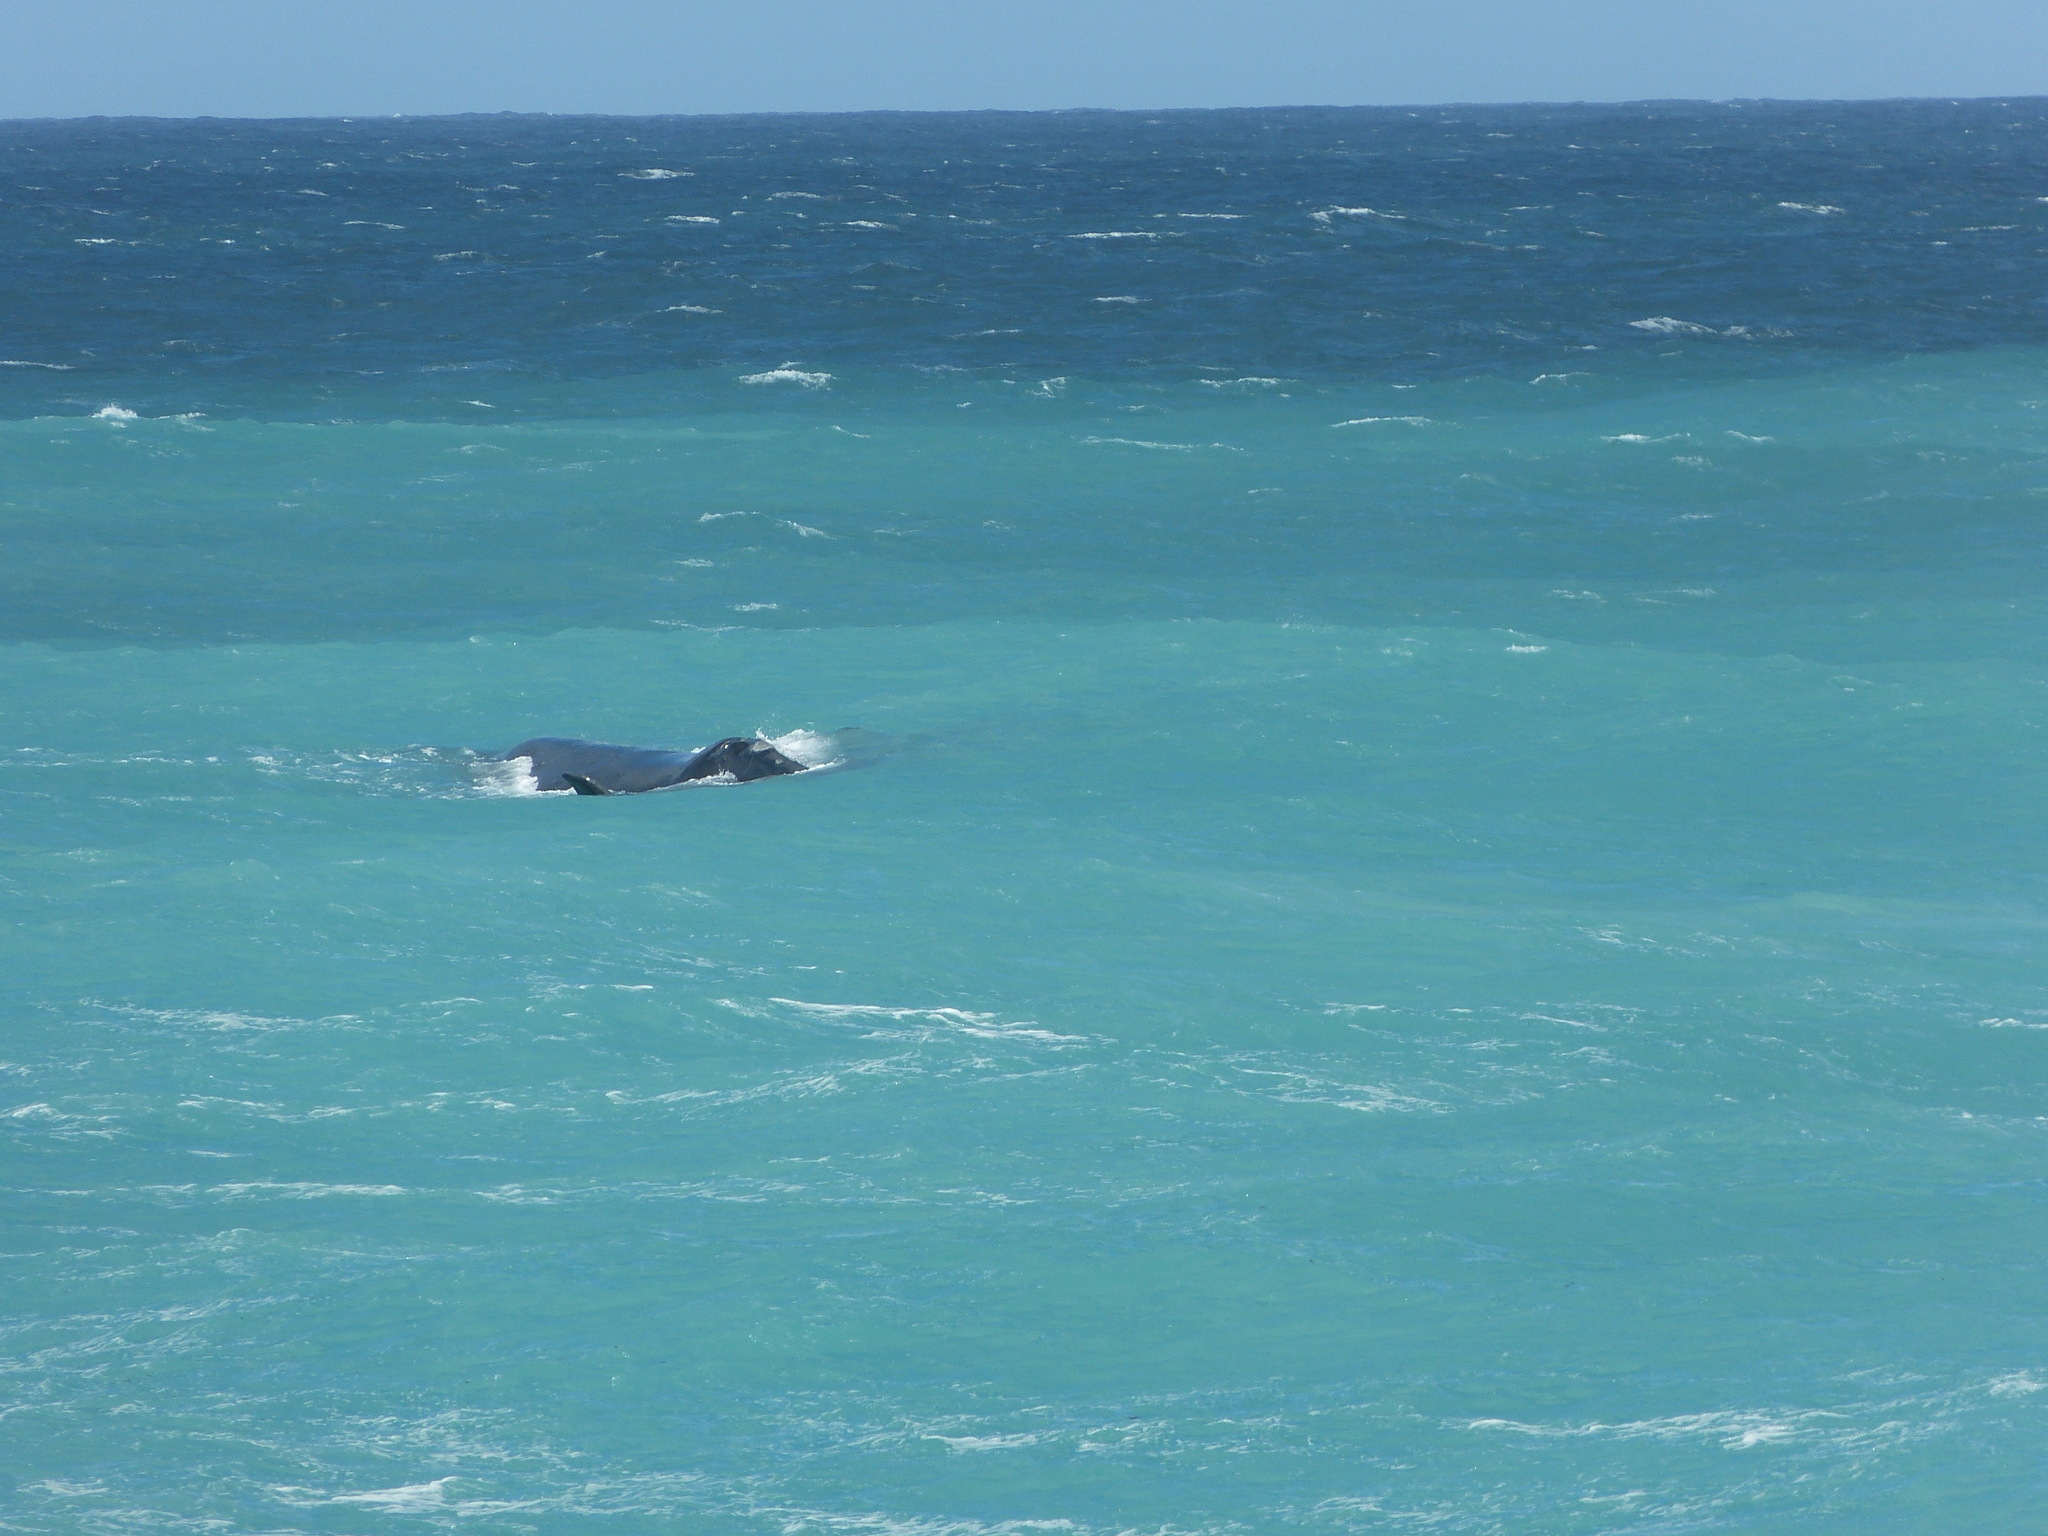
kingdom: Animalia
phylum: Chordata
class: Mammalia
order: Cetacea
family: Balaenidae
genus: Eubalaena
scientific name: Eubalaena australis
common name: Southern right whale
